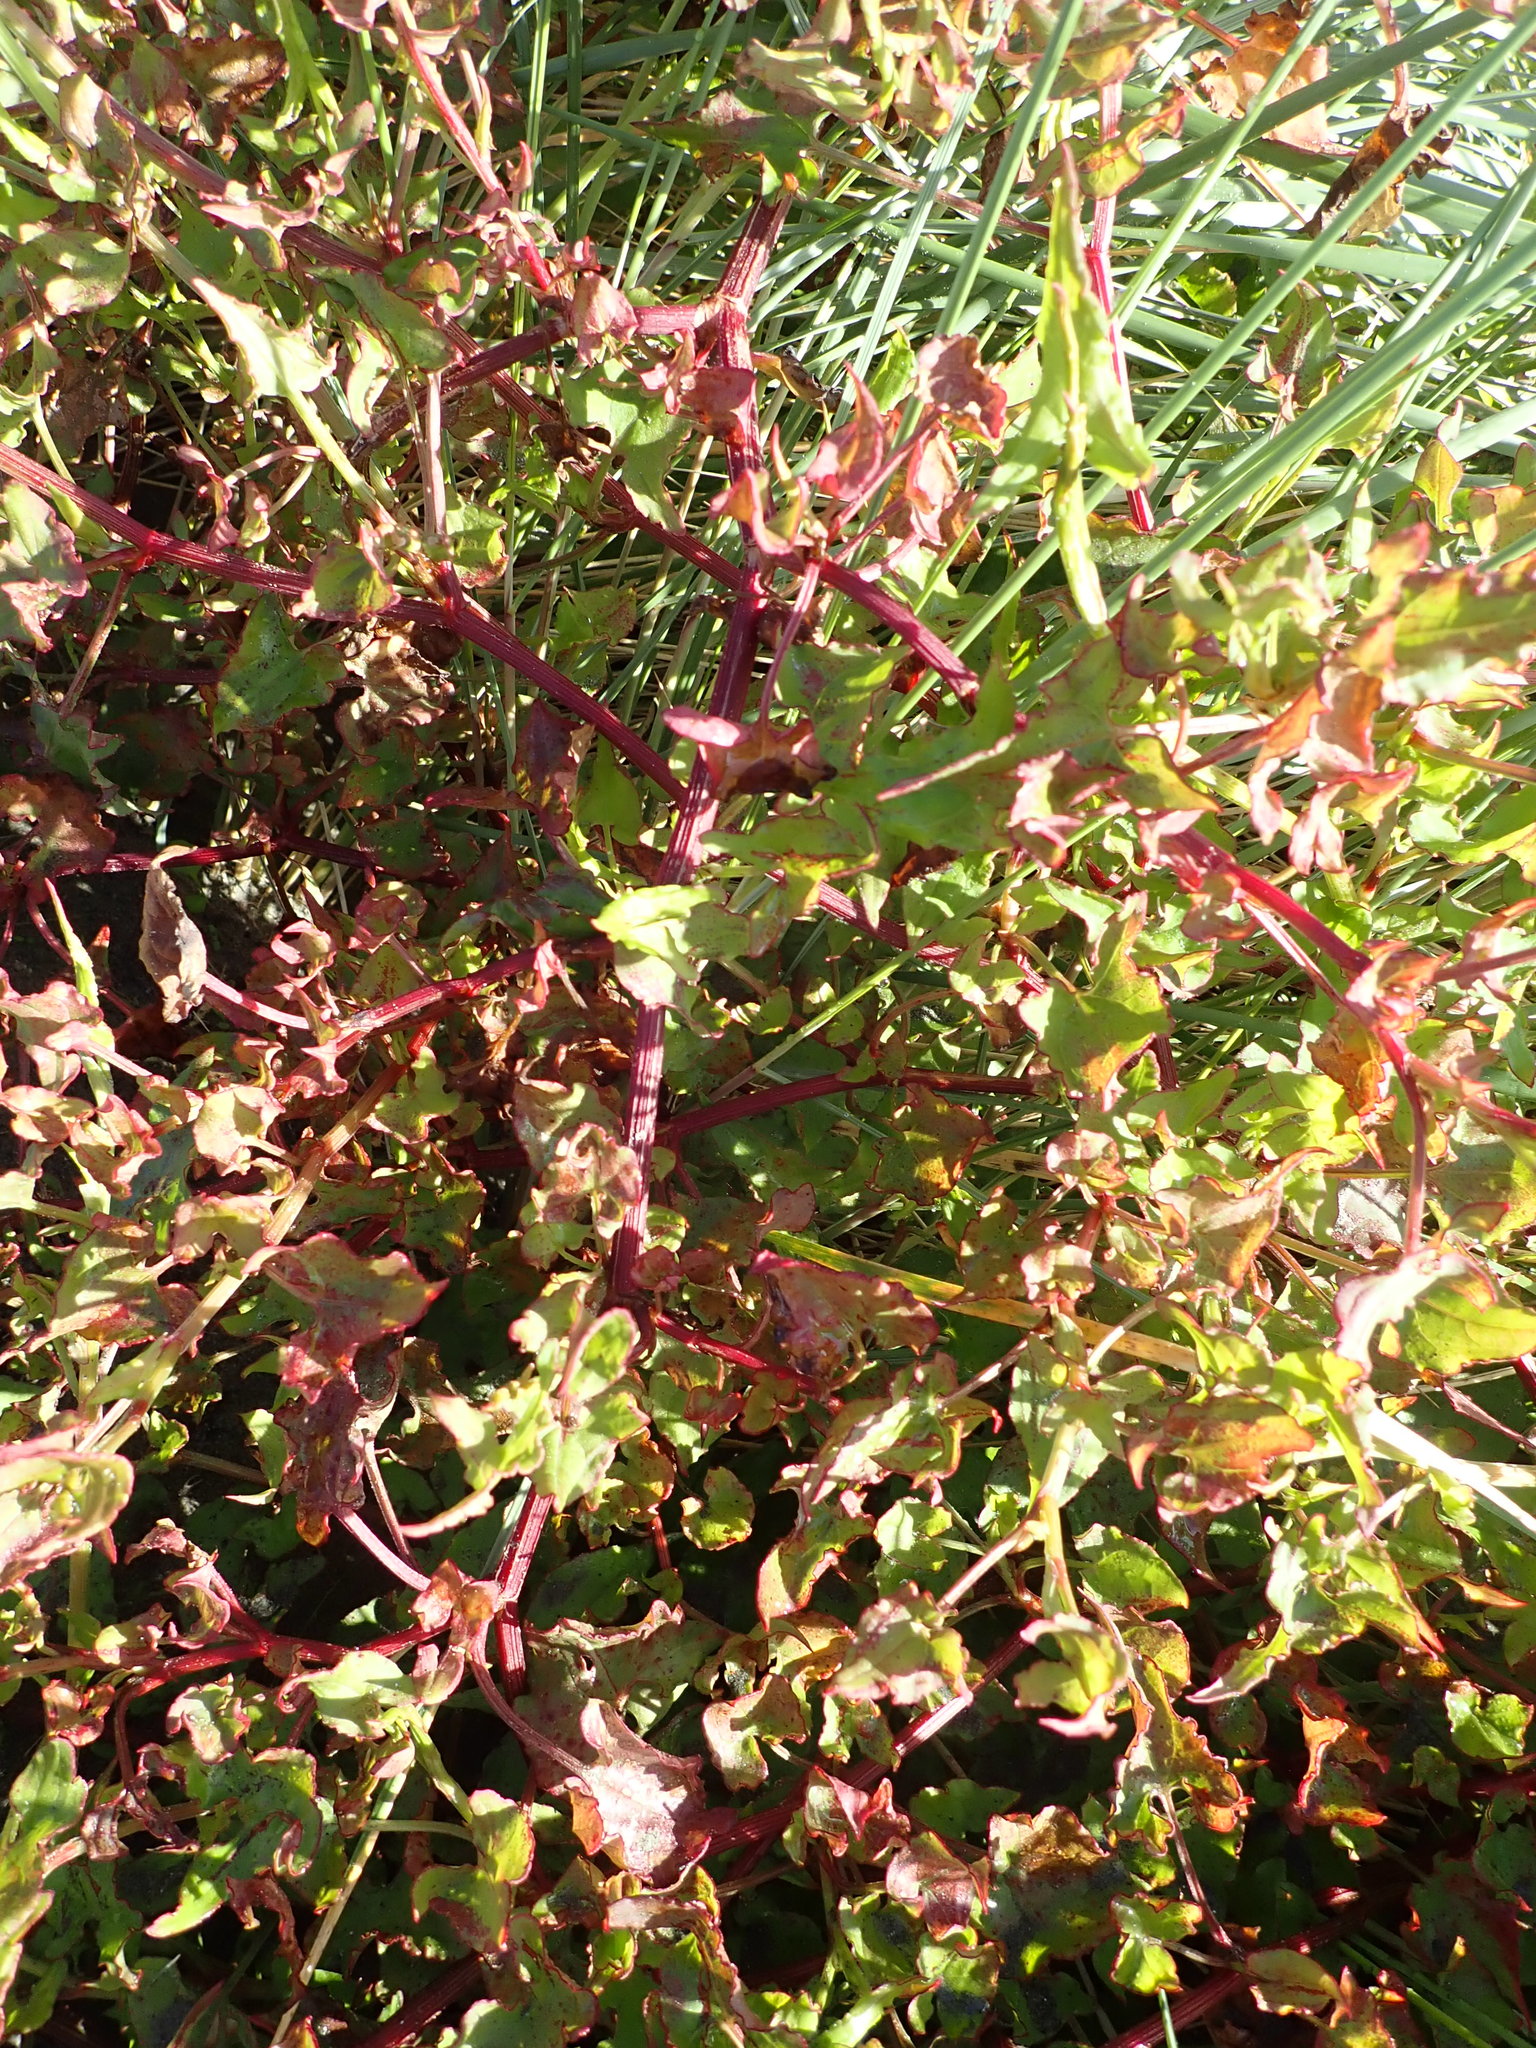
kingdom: Plantae
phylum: Tracheophyta
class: Magnoliopsida
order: Caryophyllales
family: Polygonaceae
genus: Rumex
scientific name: Rumex sagittatus
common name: Climbing dock
